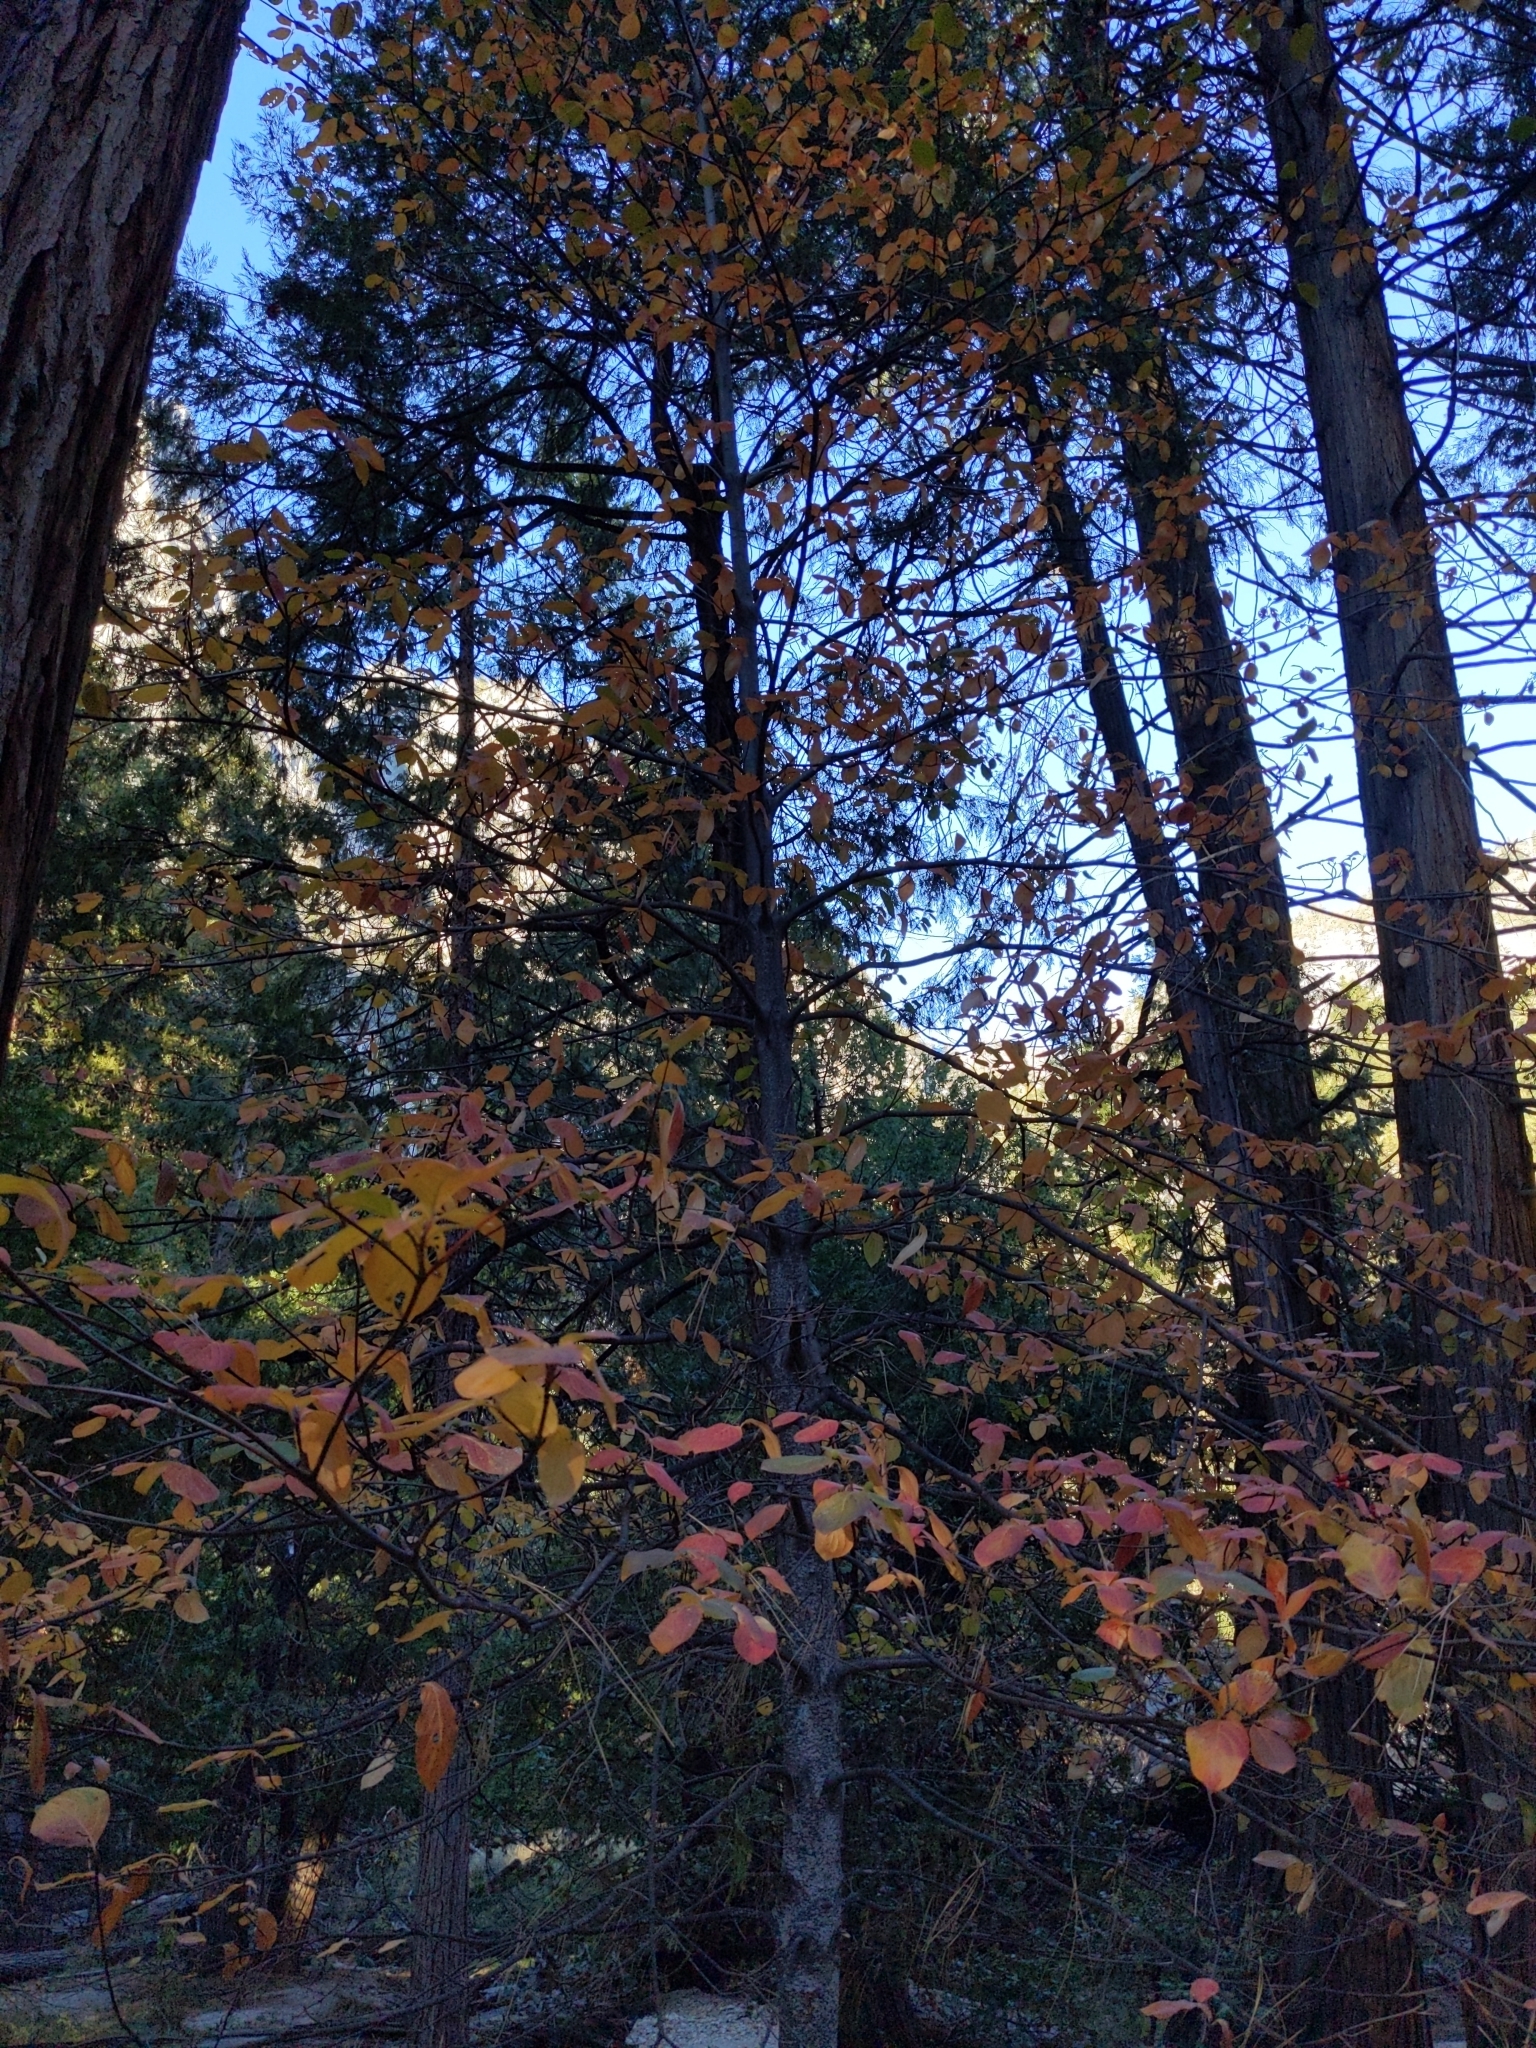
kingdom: Plantae
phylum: Tracheophyta
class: Magnoliopsida
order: Cornales
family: Cornaceae
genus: Cornus
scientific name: Cornus nuttallii
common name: Pacific dogwood
